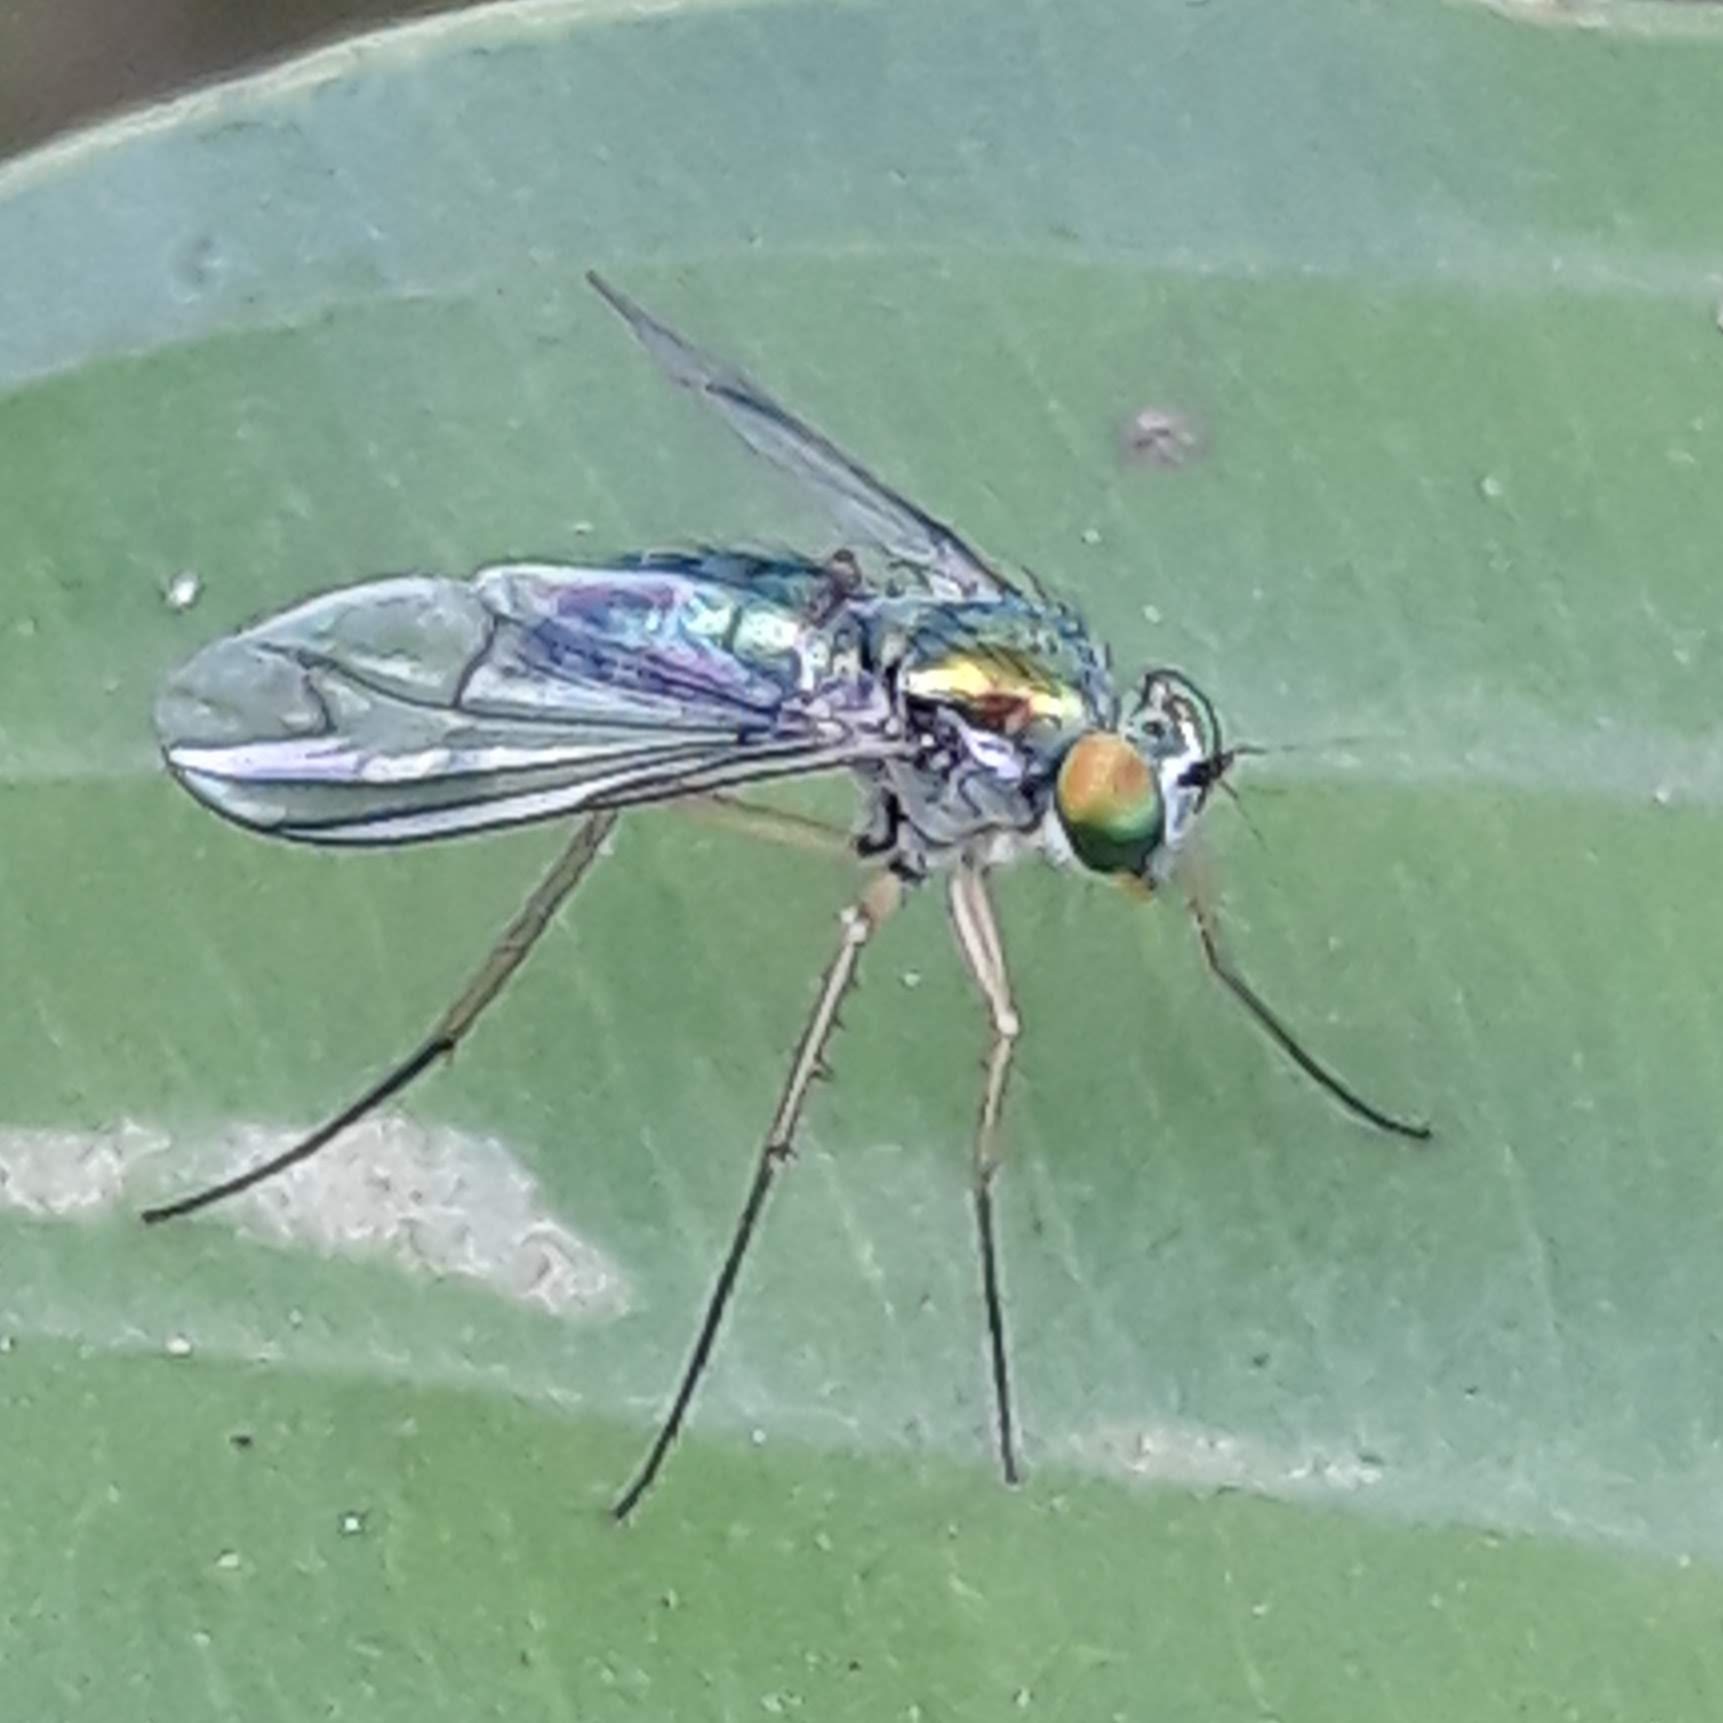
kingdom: Animalia
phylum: Arthropoda
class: Insecta
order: Diptera
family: Dolichopodidae
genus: Condylostylus
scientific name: Condylostylus
